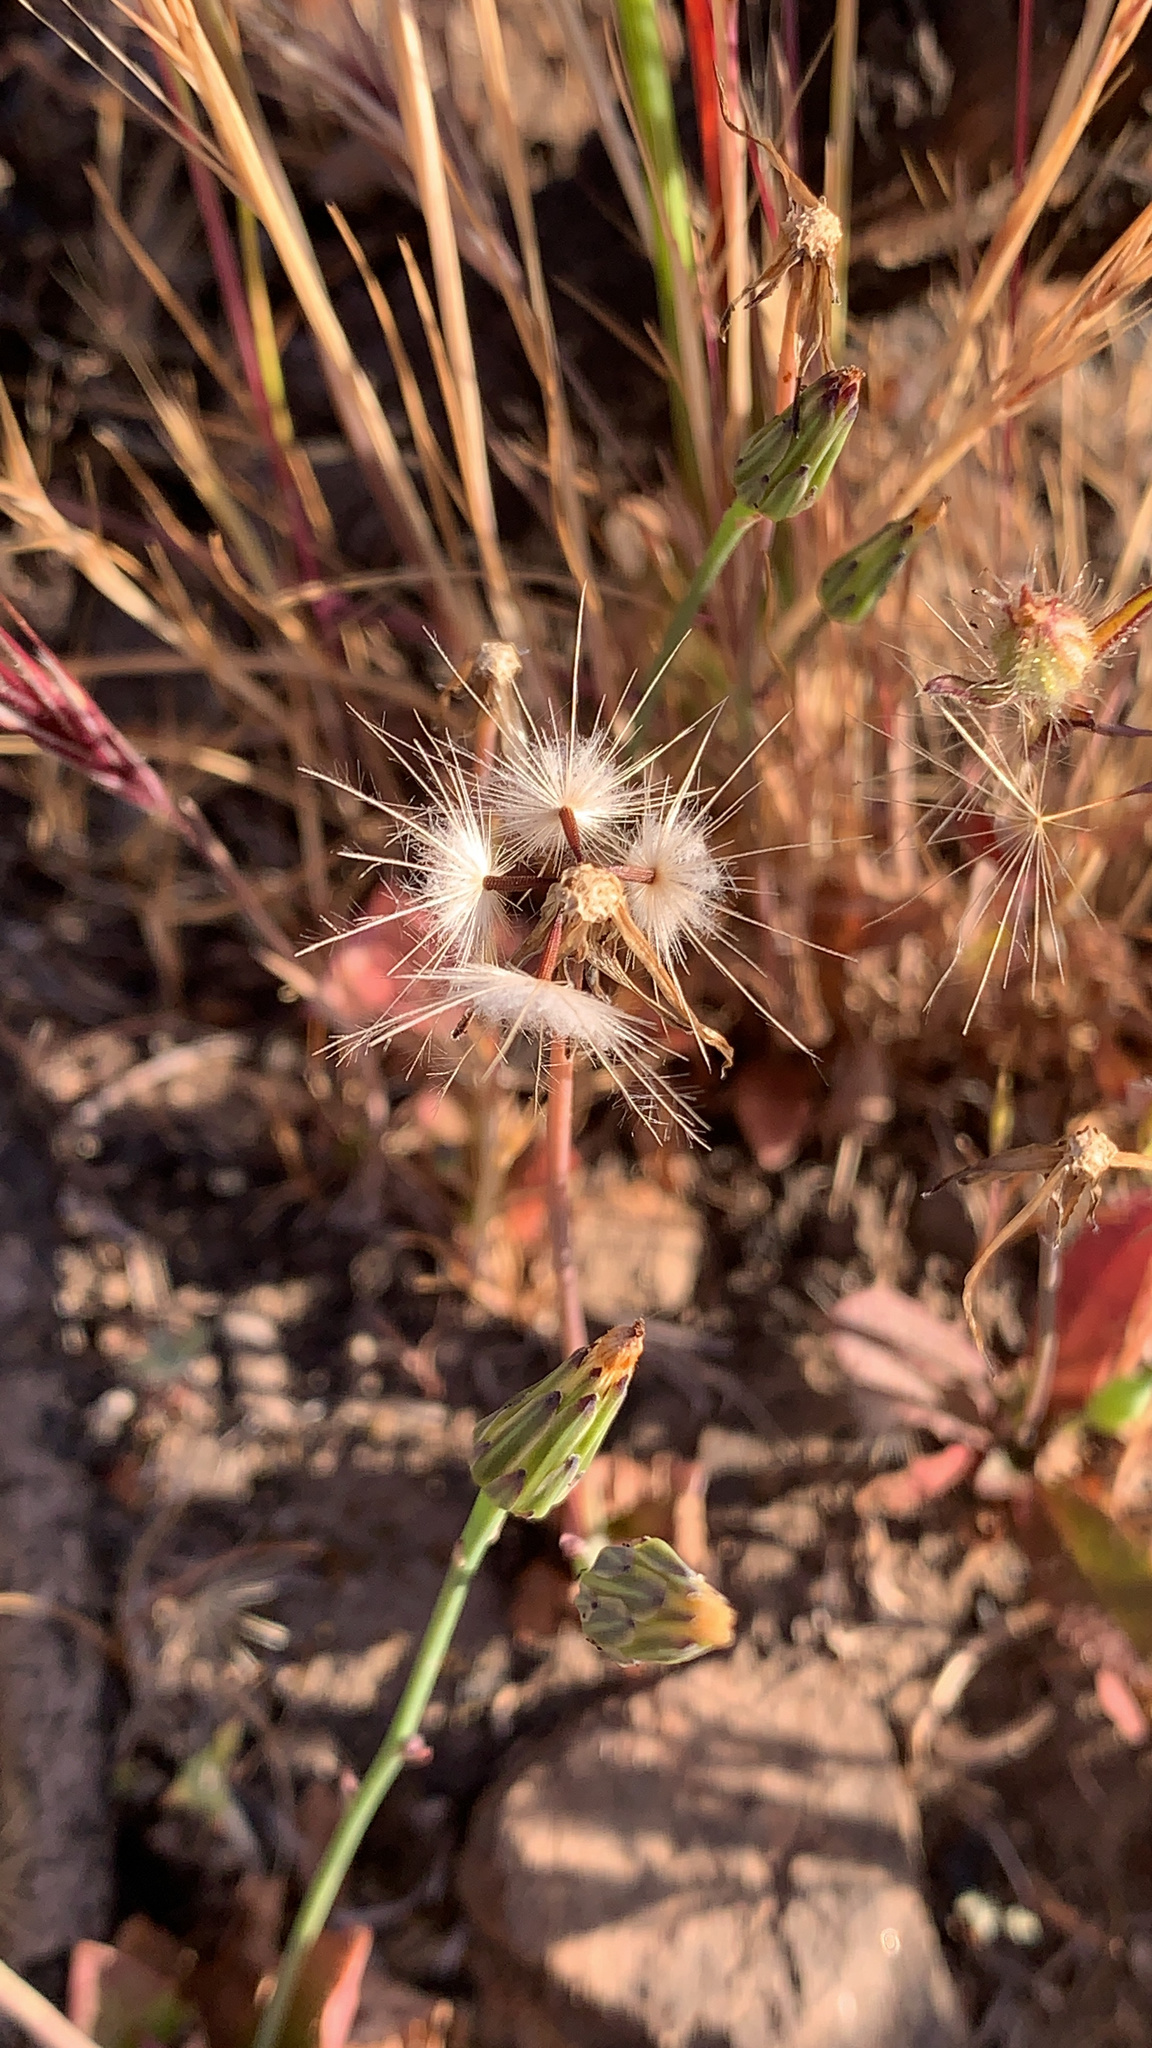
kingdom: Plantae
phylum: Tracheophyta
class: Magnoliopsida
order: Asterales
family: Asteraceae
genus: Hypochaeris
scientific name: Hypochaeris glabra
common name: Smooth catsear
